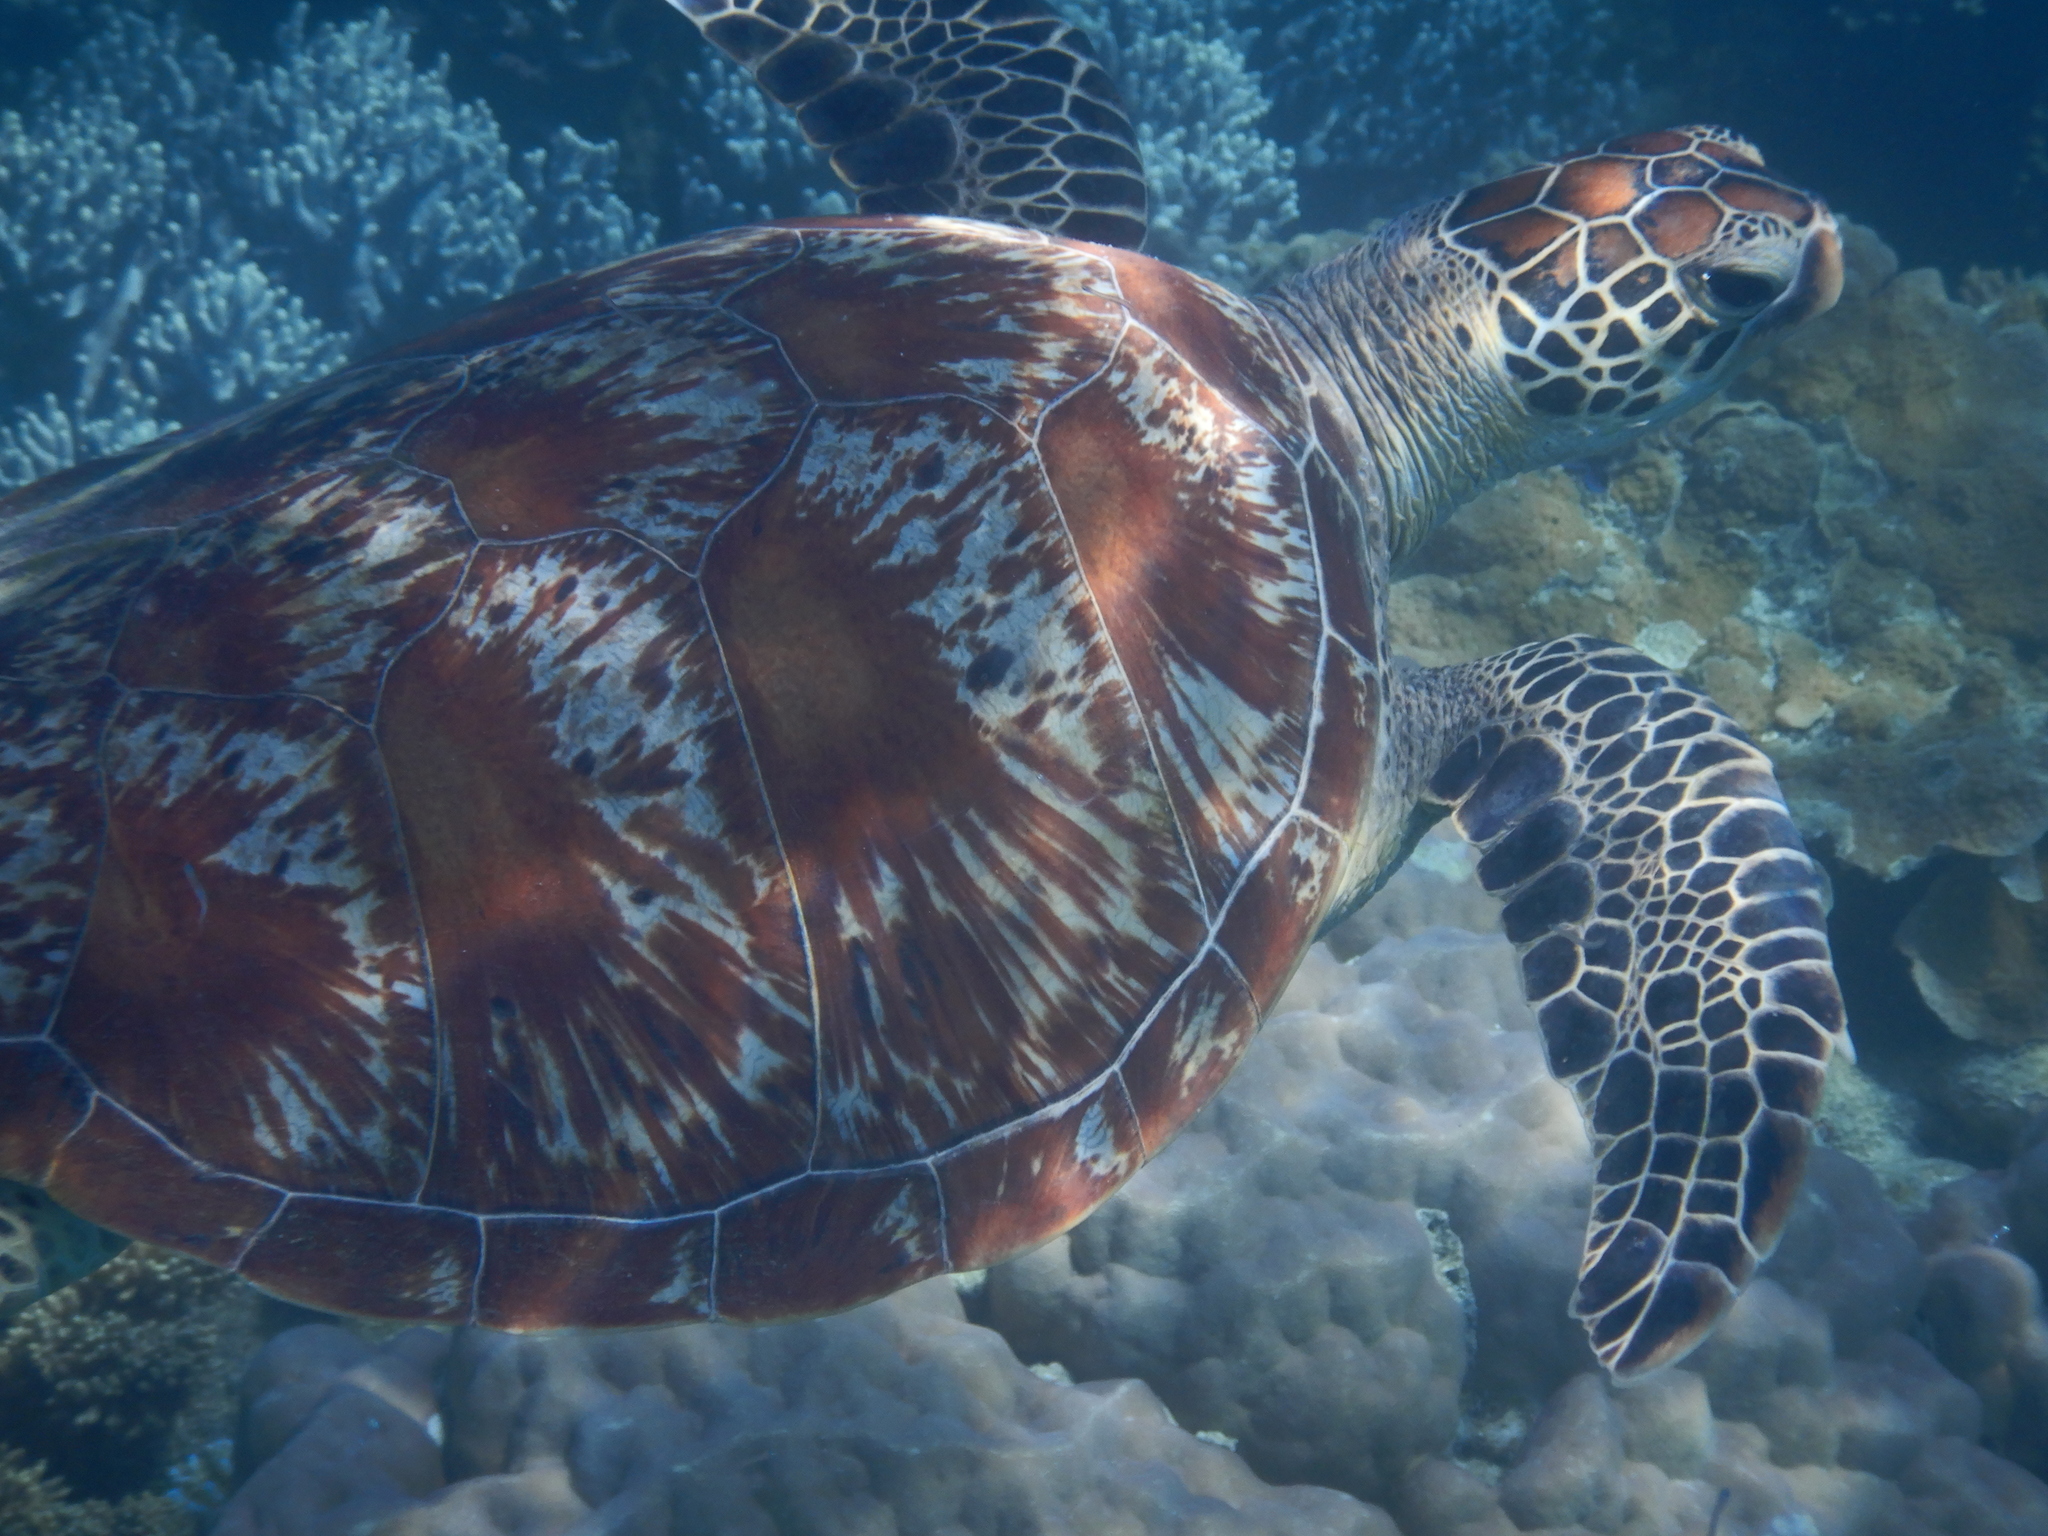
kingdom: Animalia
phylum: Chordata
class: Testudines
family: Cheloniidae
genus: Chelonia
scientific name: Chelonia mydas
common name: Green turtle
